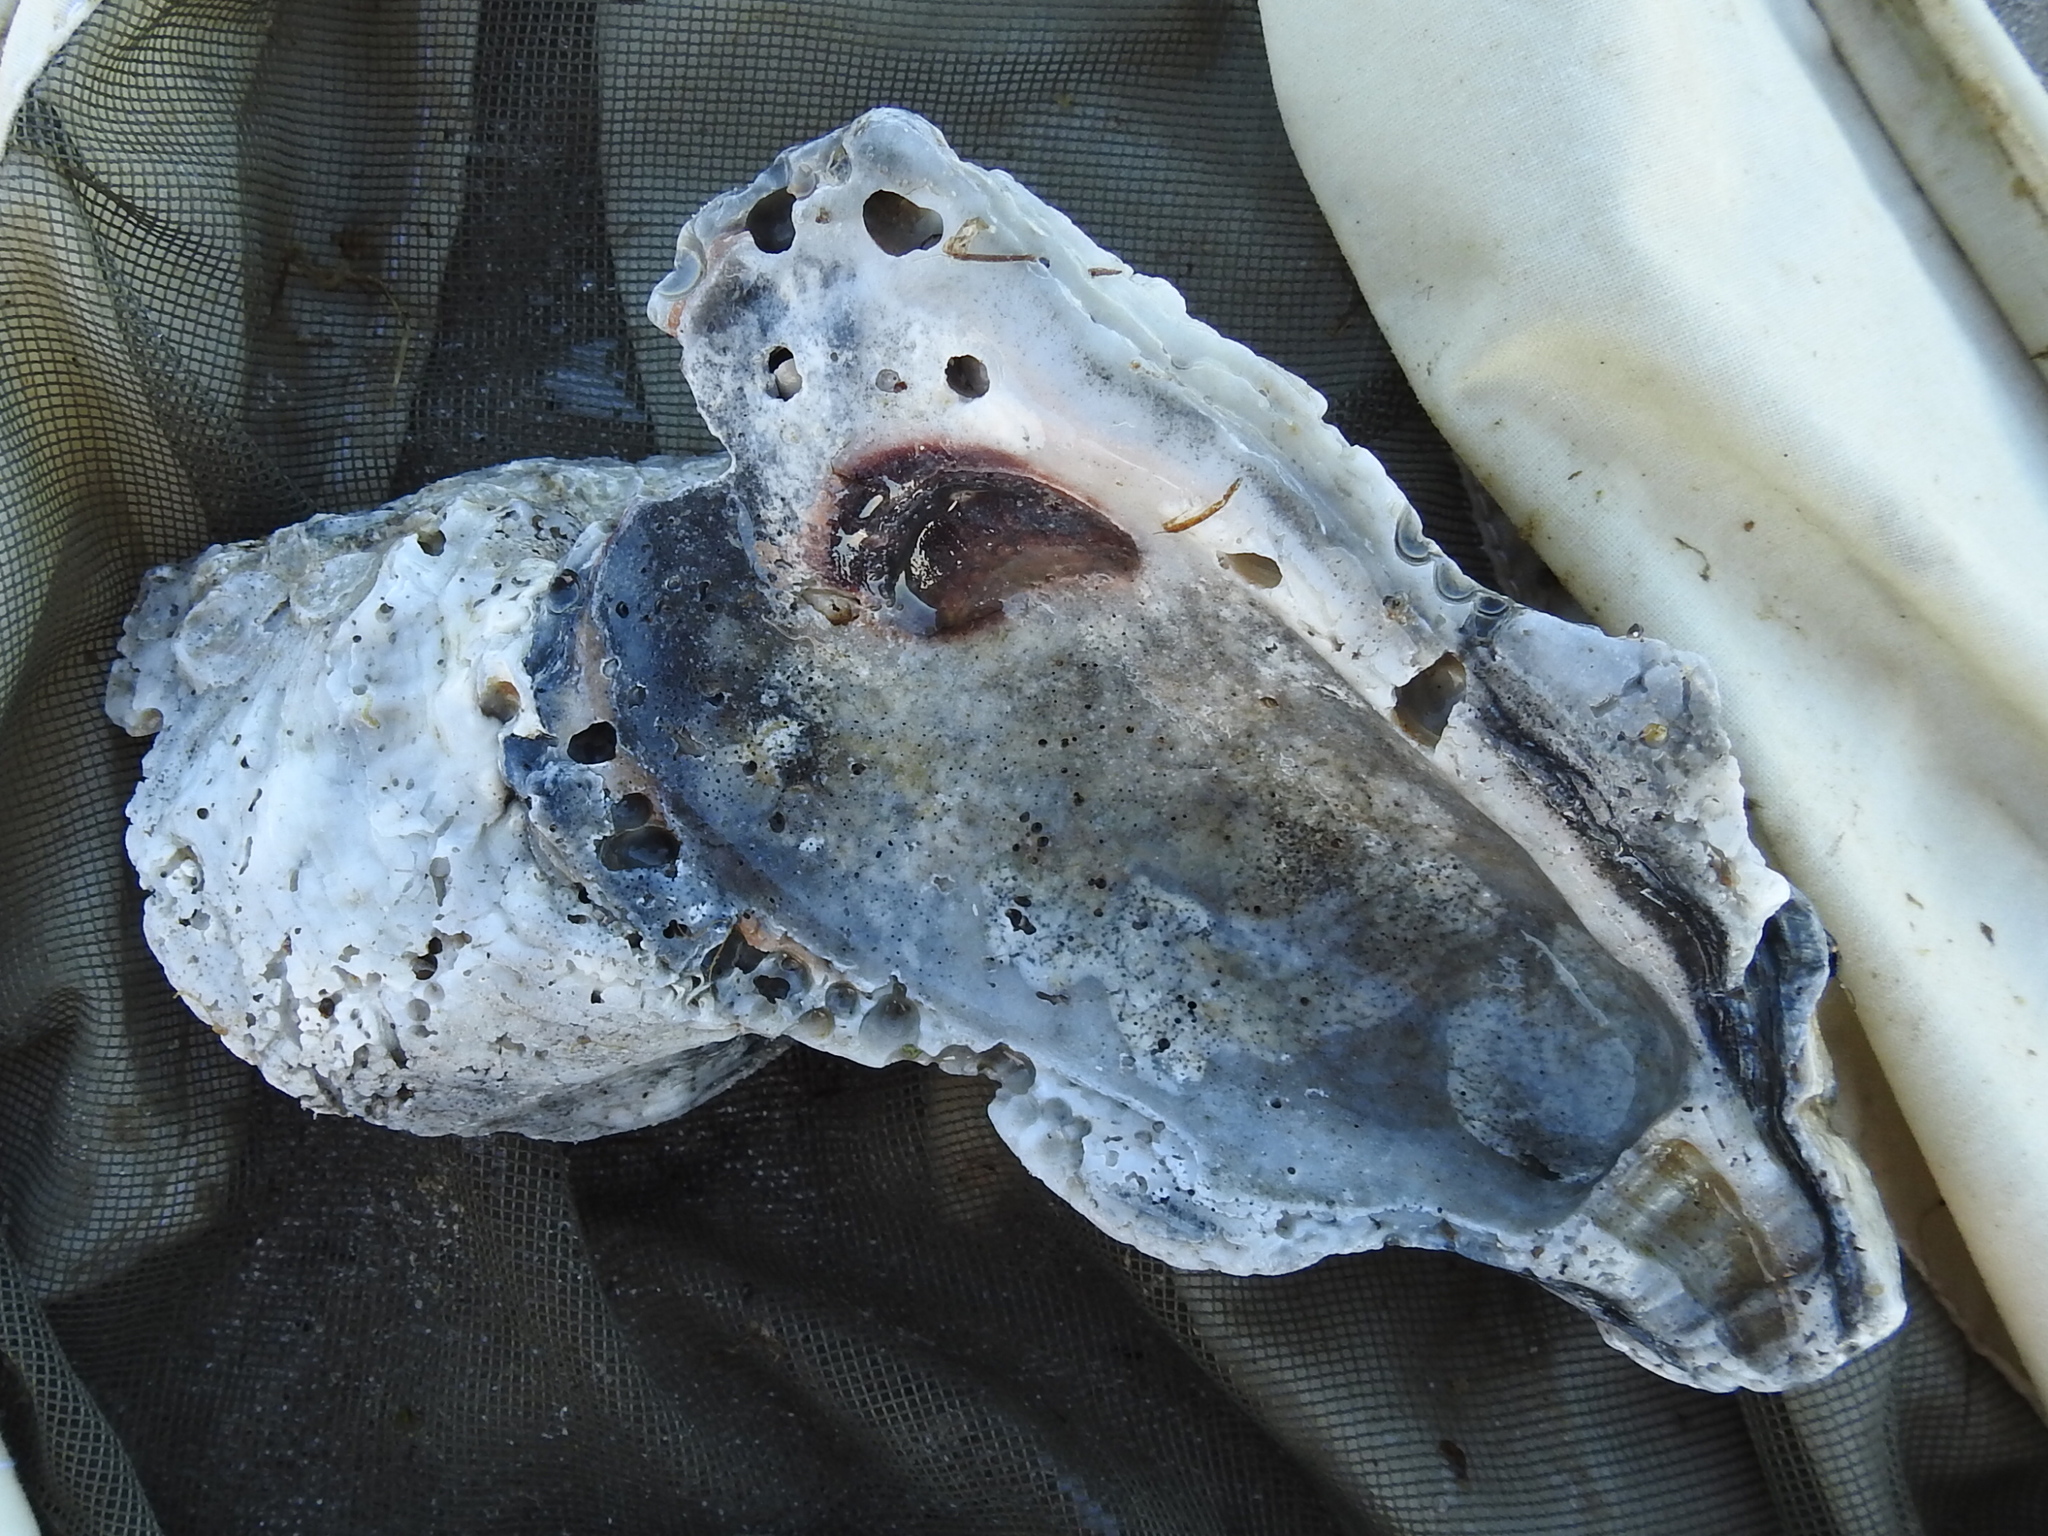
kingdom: Animalia
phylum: Mollusca
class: Bivalvia
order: Ostreida
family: Ostreidae
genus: Crassostrea
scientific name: Crassostrea virginica
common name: American oyster
